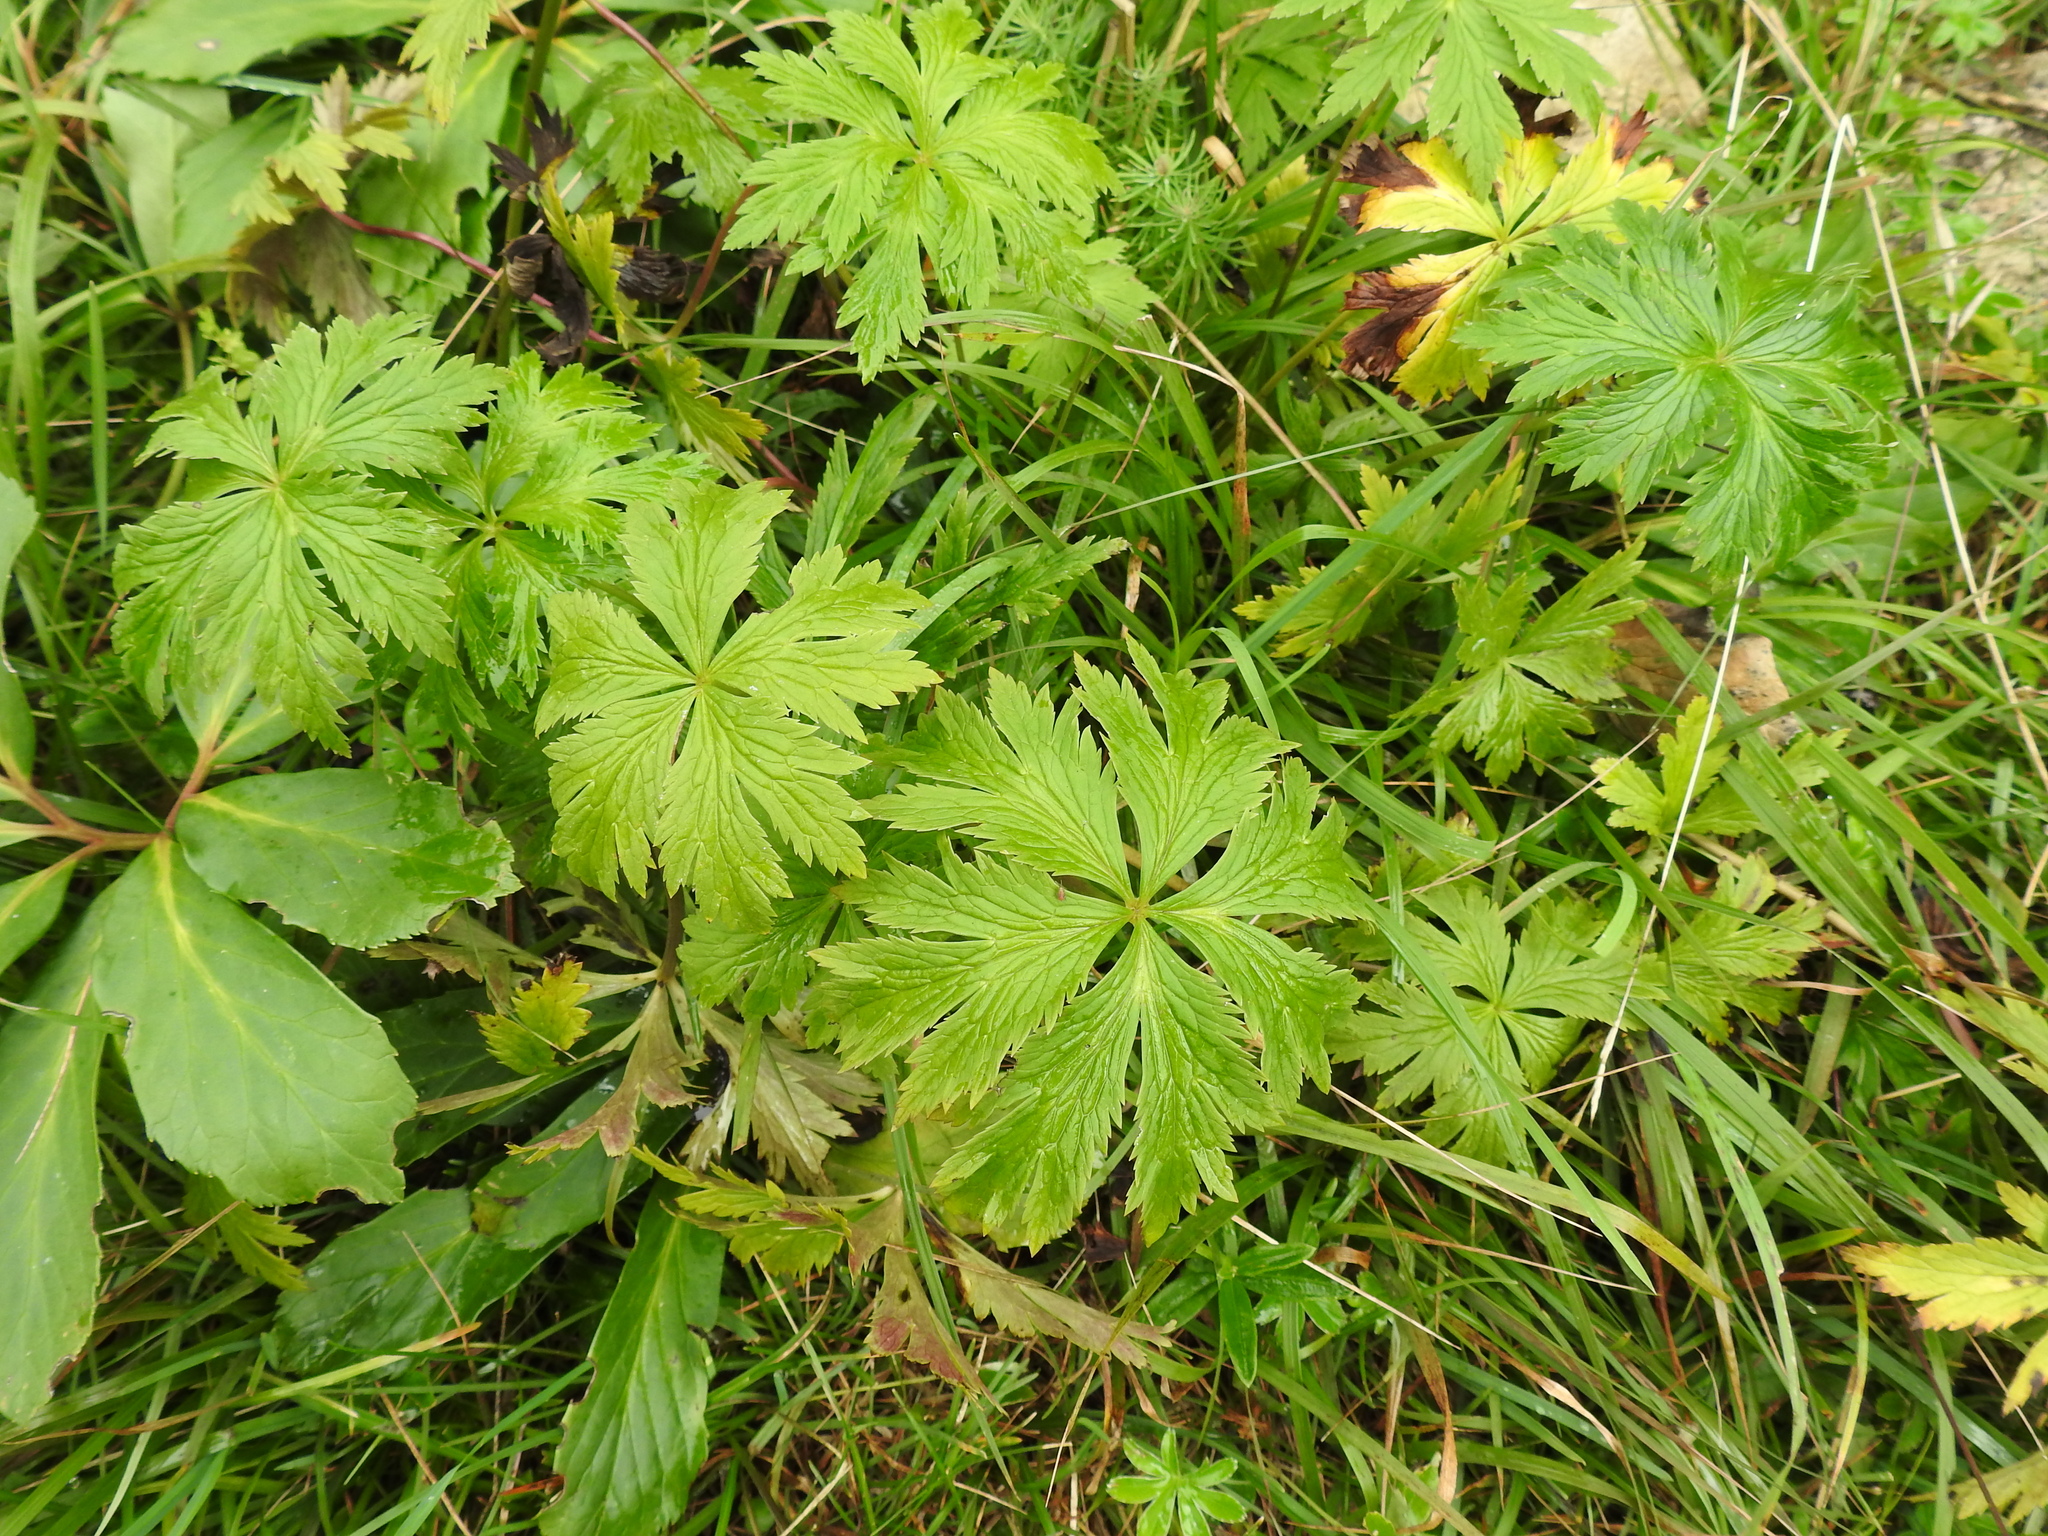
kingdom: Plantae
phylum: Tracheophyta
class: Magnoliopsida
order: Ranunculales
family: Ranunculaceae
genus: Trollius
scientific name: Trollius europaeus
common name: European globeflower
